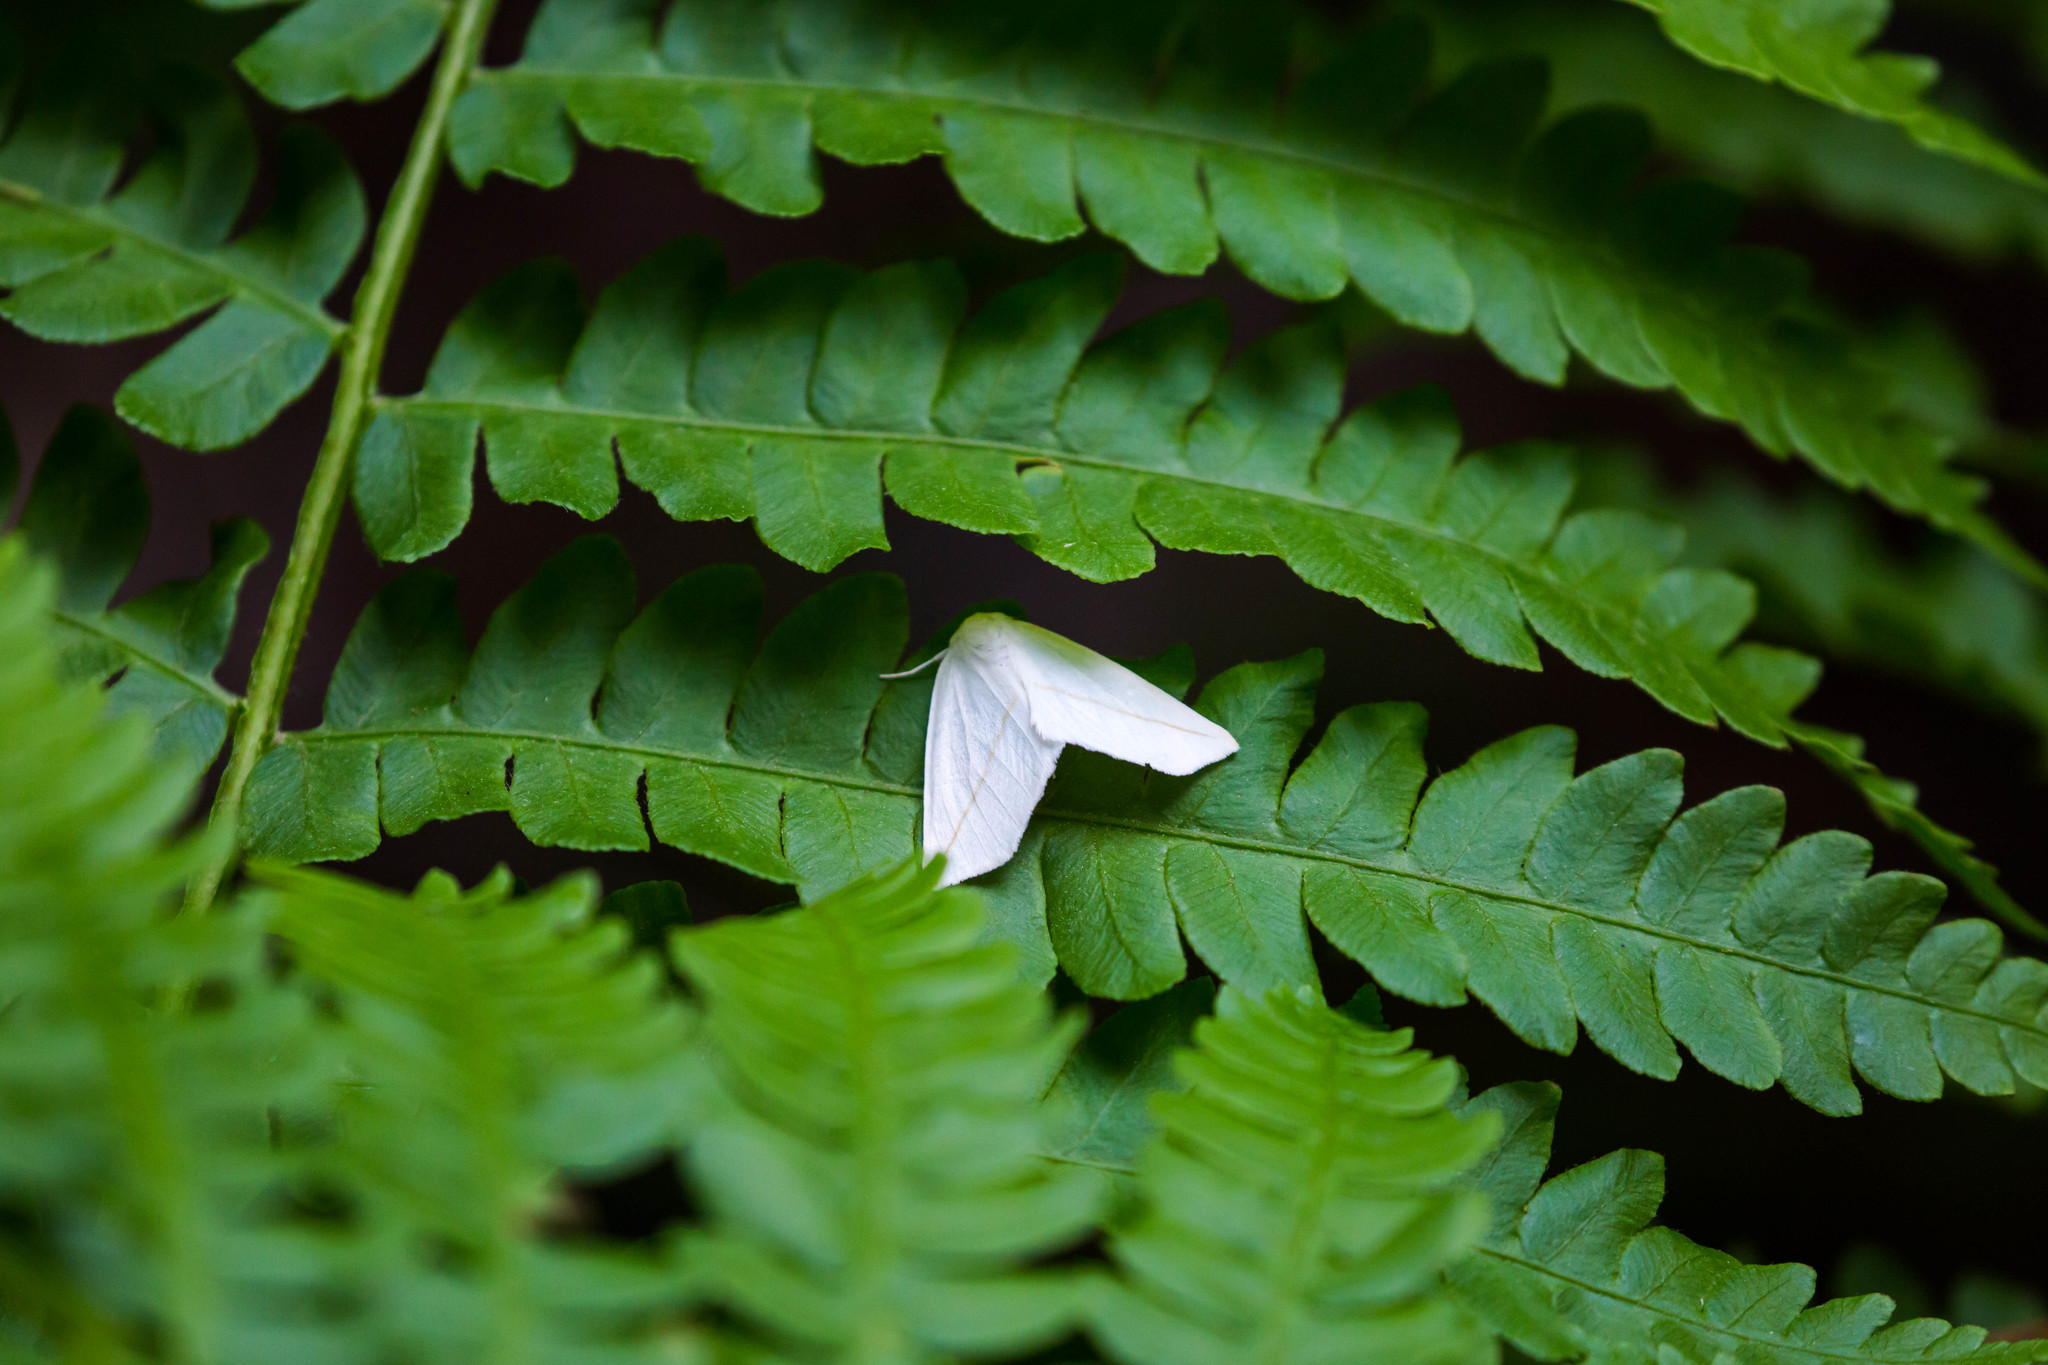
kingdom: Animalia
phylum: Arthropoda
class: Insecta
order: Lepidoptera
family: Geometridae
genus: Tetracis
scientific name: Tetracis cachexiata
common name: White slant-line
